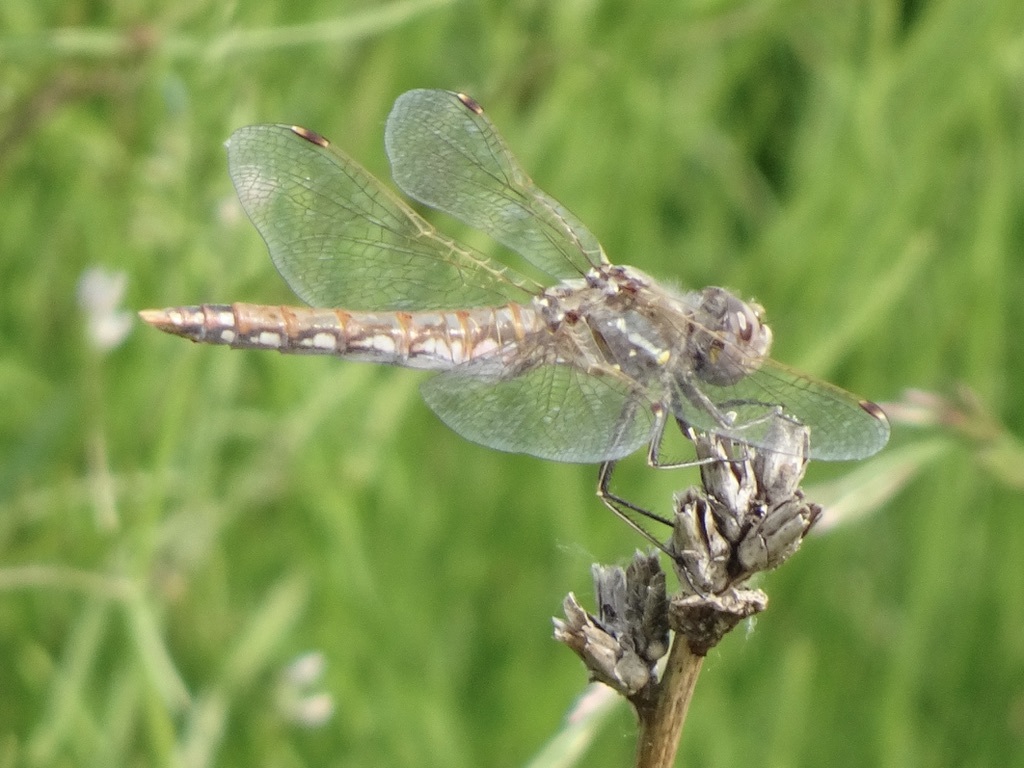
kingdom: Animalia
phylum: Arthropoda
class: Insecta
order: Odonata
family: Libellulidae
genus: Sympetrum
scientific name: Sympetrum corruptum
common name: Variegated meadowhawk
